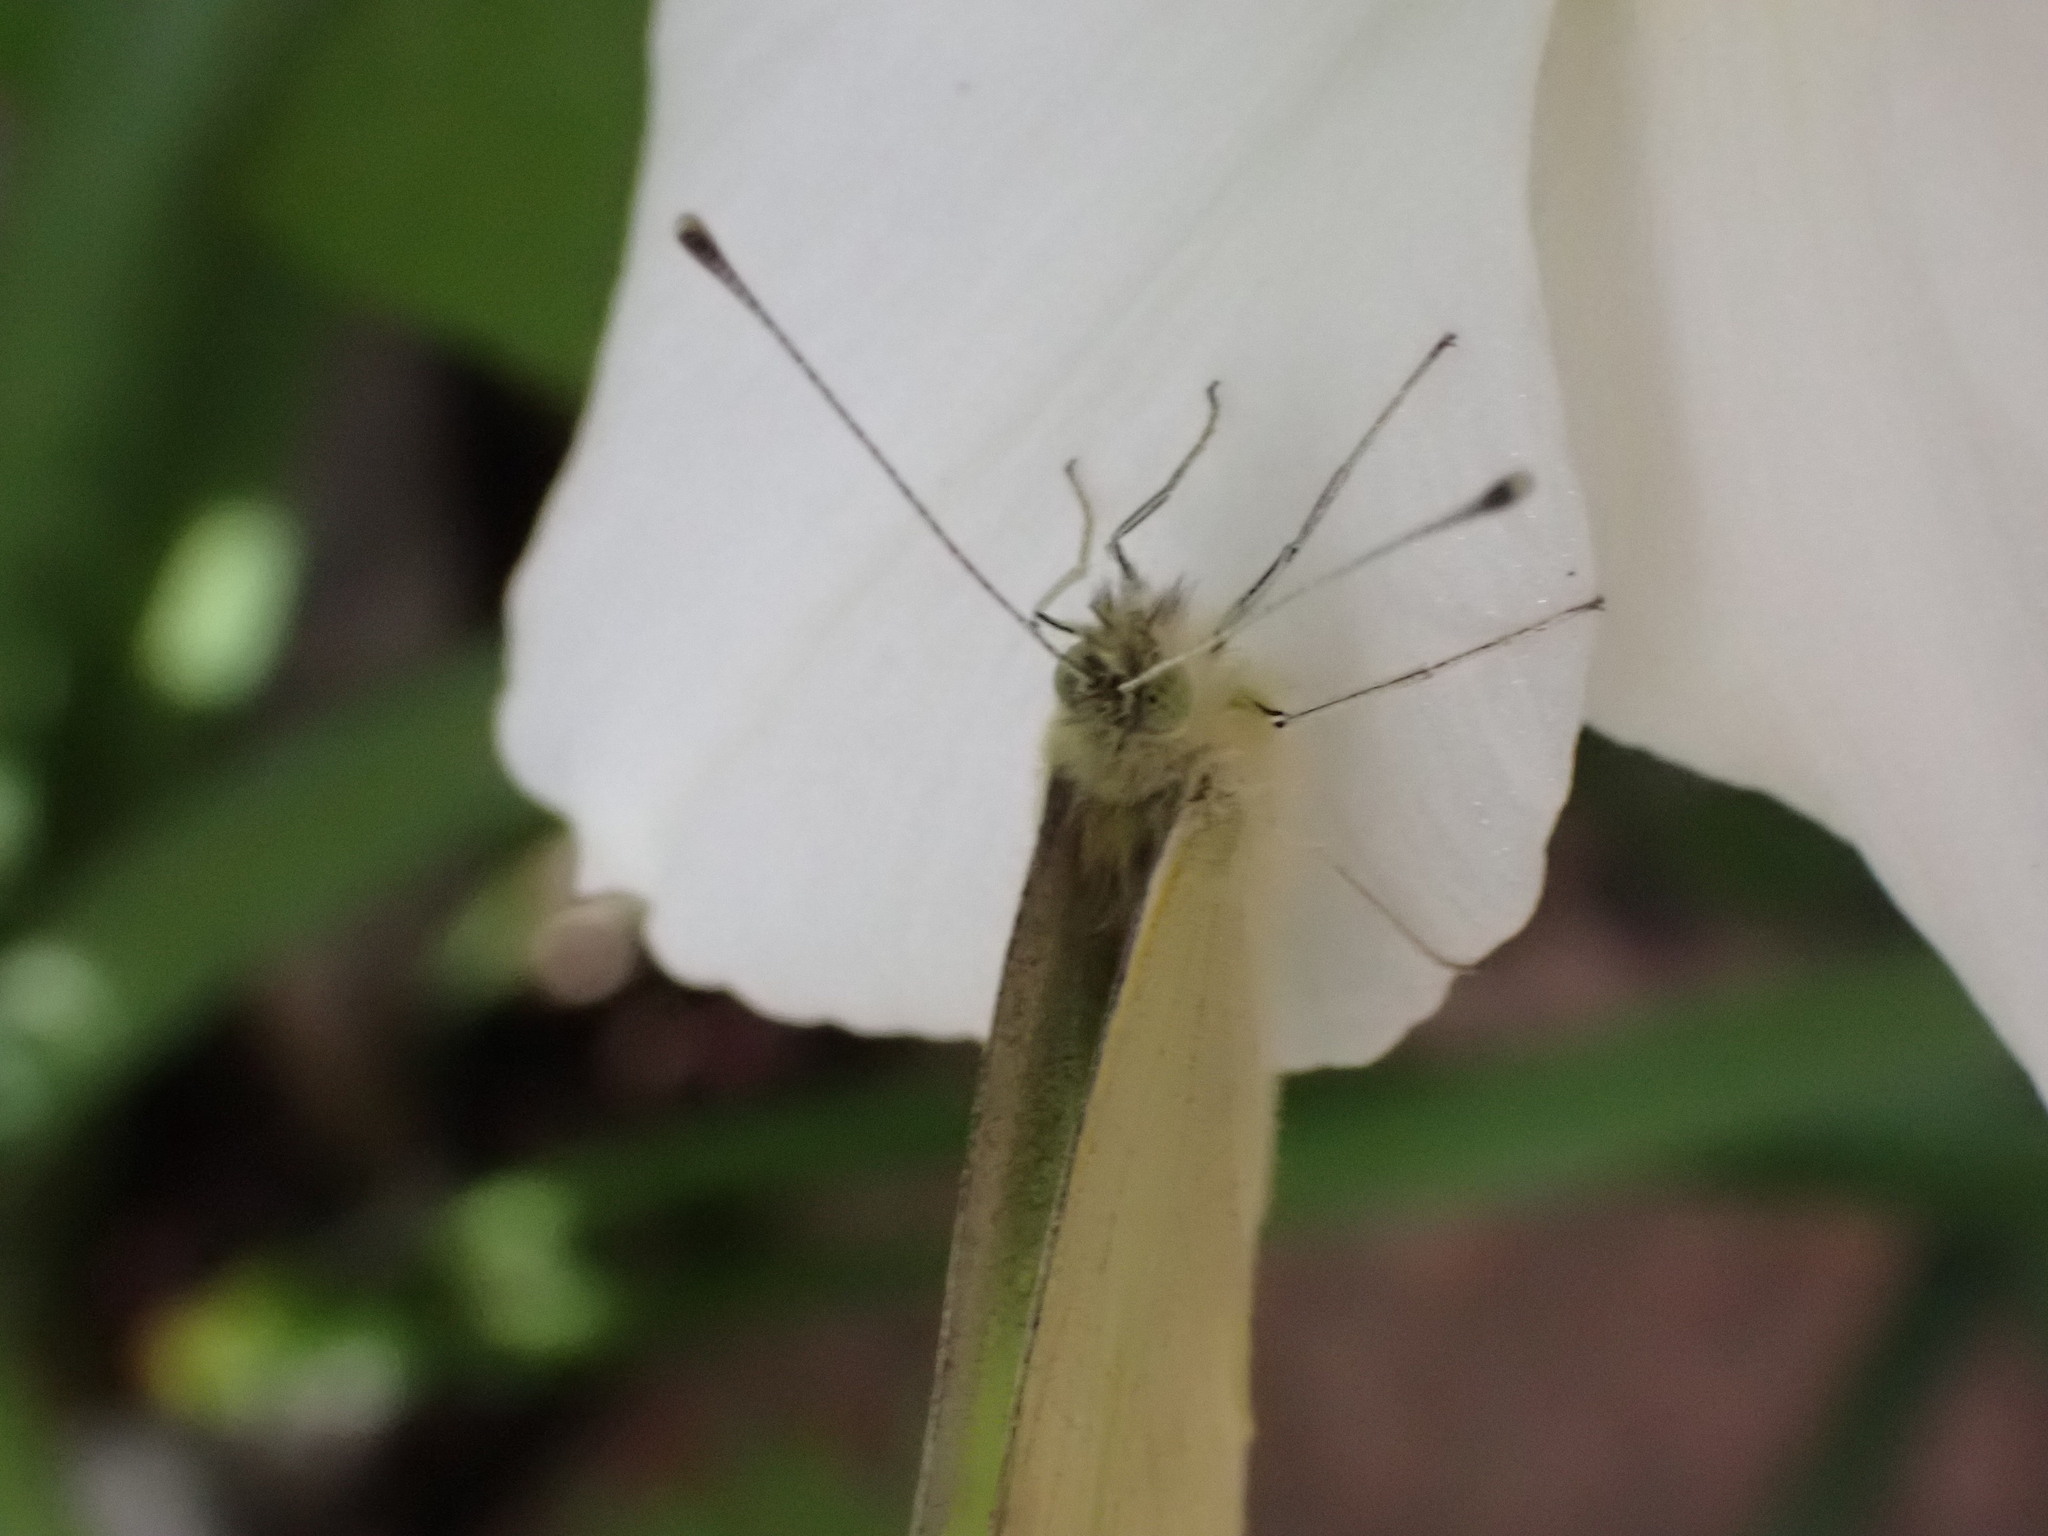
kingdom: Animalia
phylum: Arthropoda
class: Insecta
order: Lepidoptera
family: Pieridae
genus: Pieris
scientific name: Pieris rapae
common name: Small white
